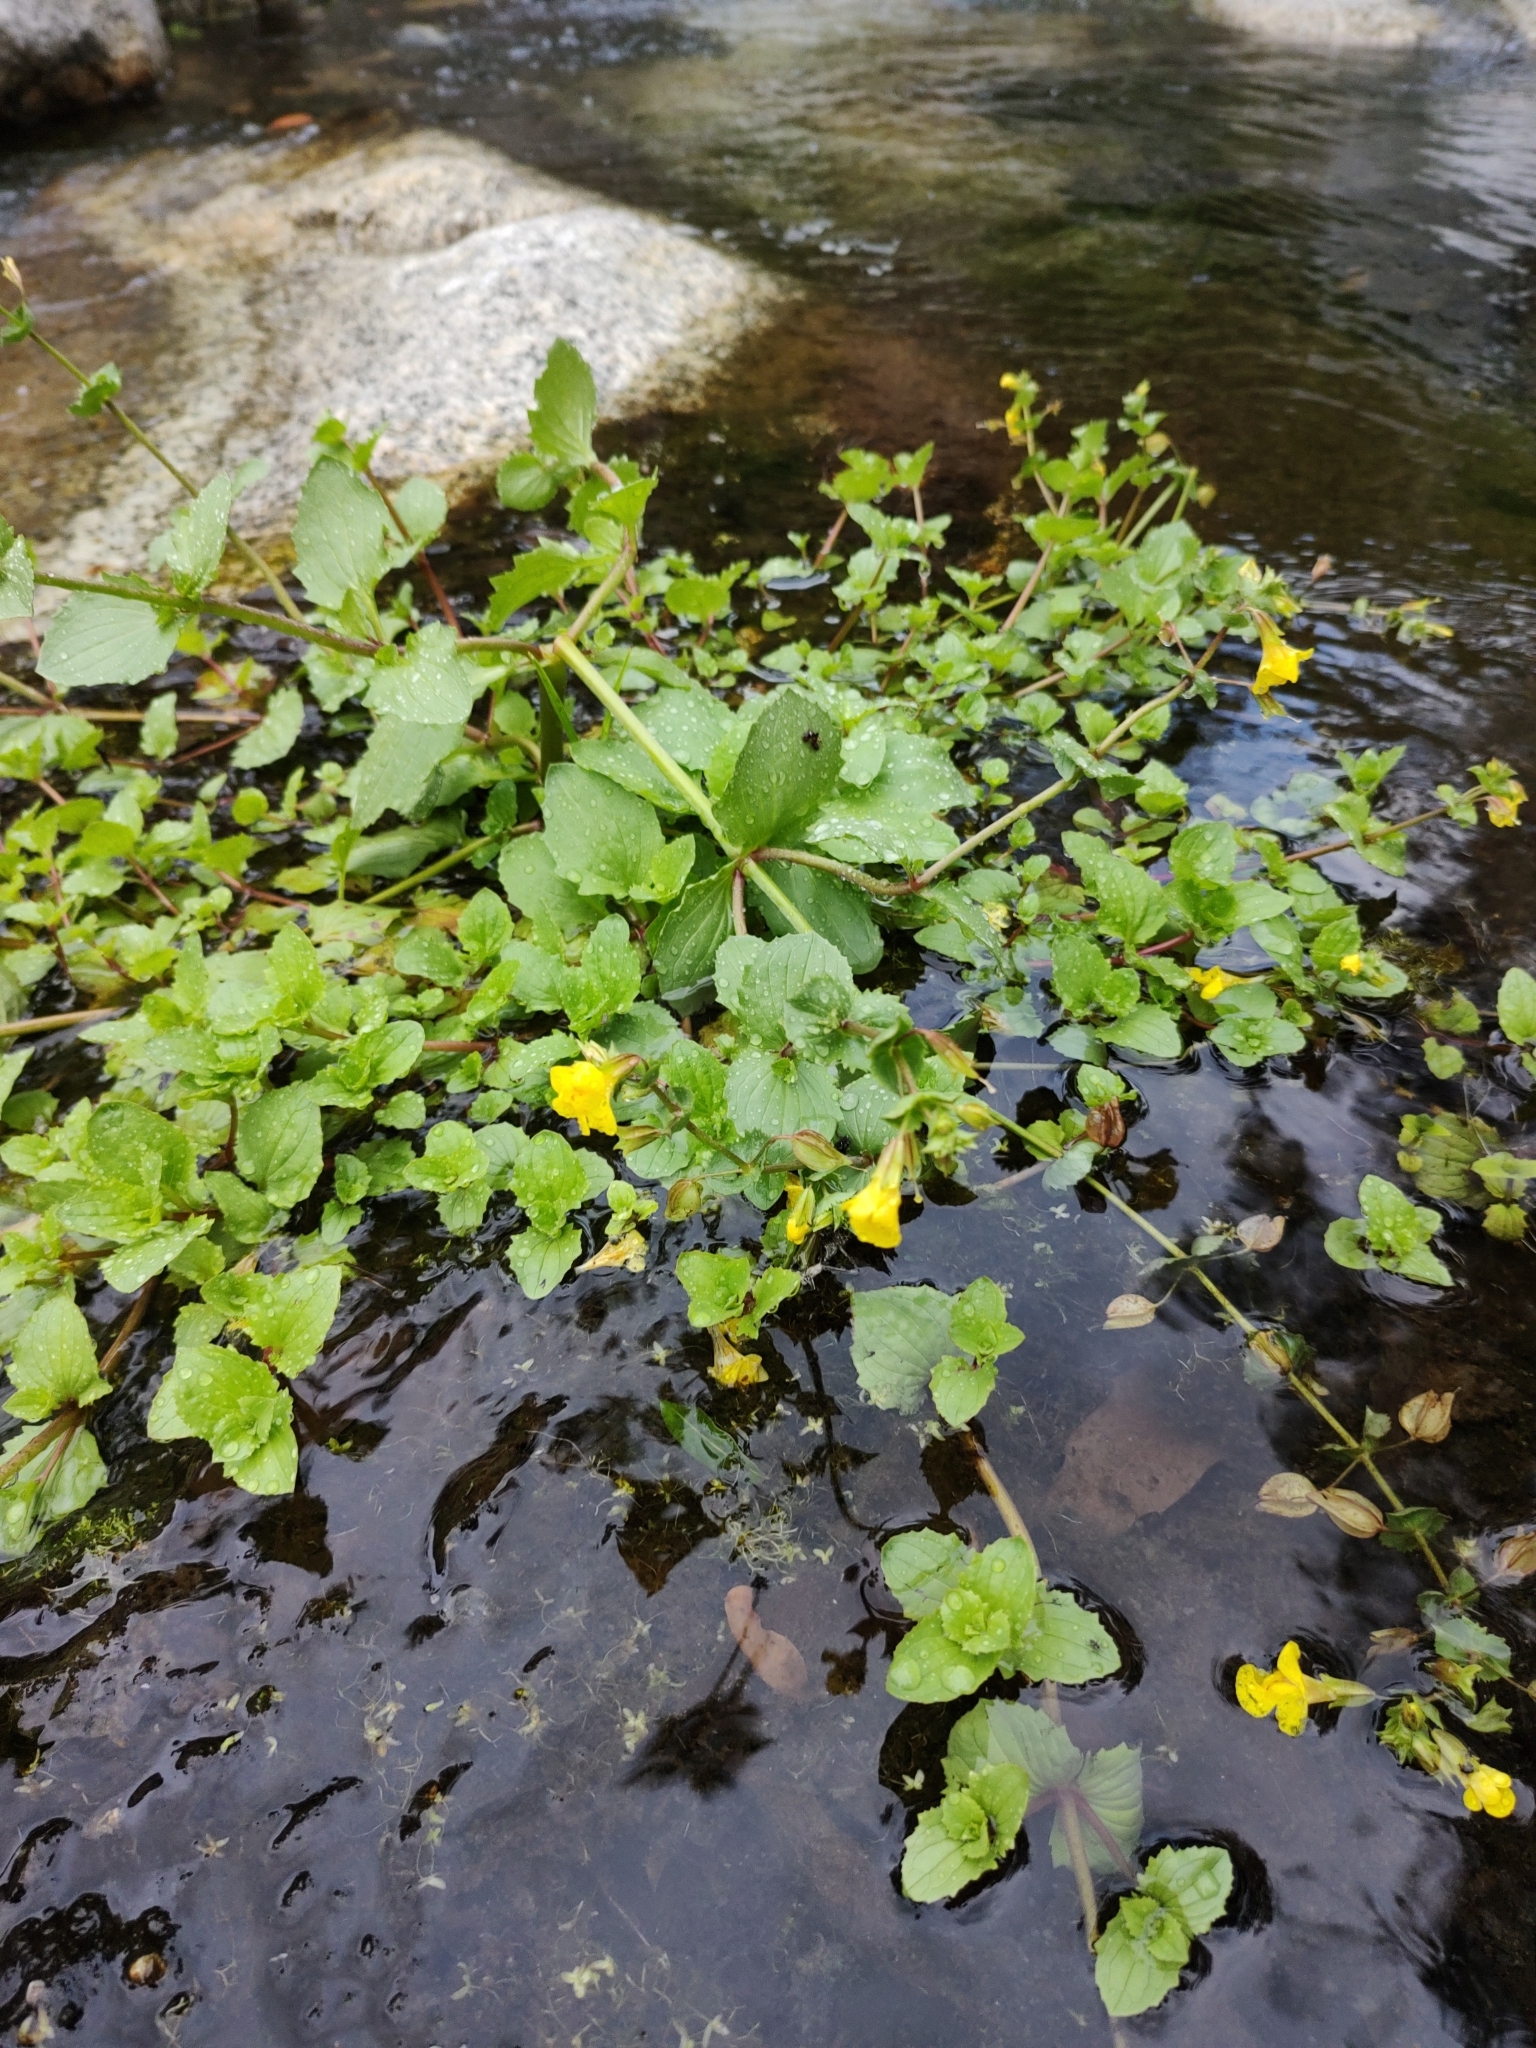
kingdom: Plantae
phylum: Tracheophyta
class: Magnoliopsida
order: Lamiales
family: Phrymaceae
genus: Erythranthe
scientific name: Erythranthe lagunensis
